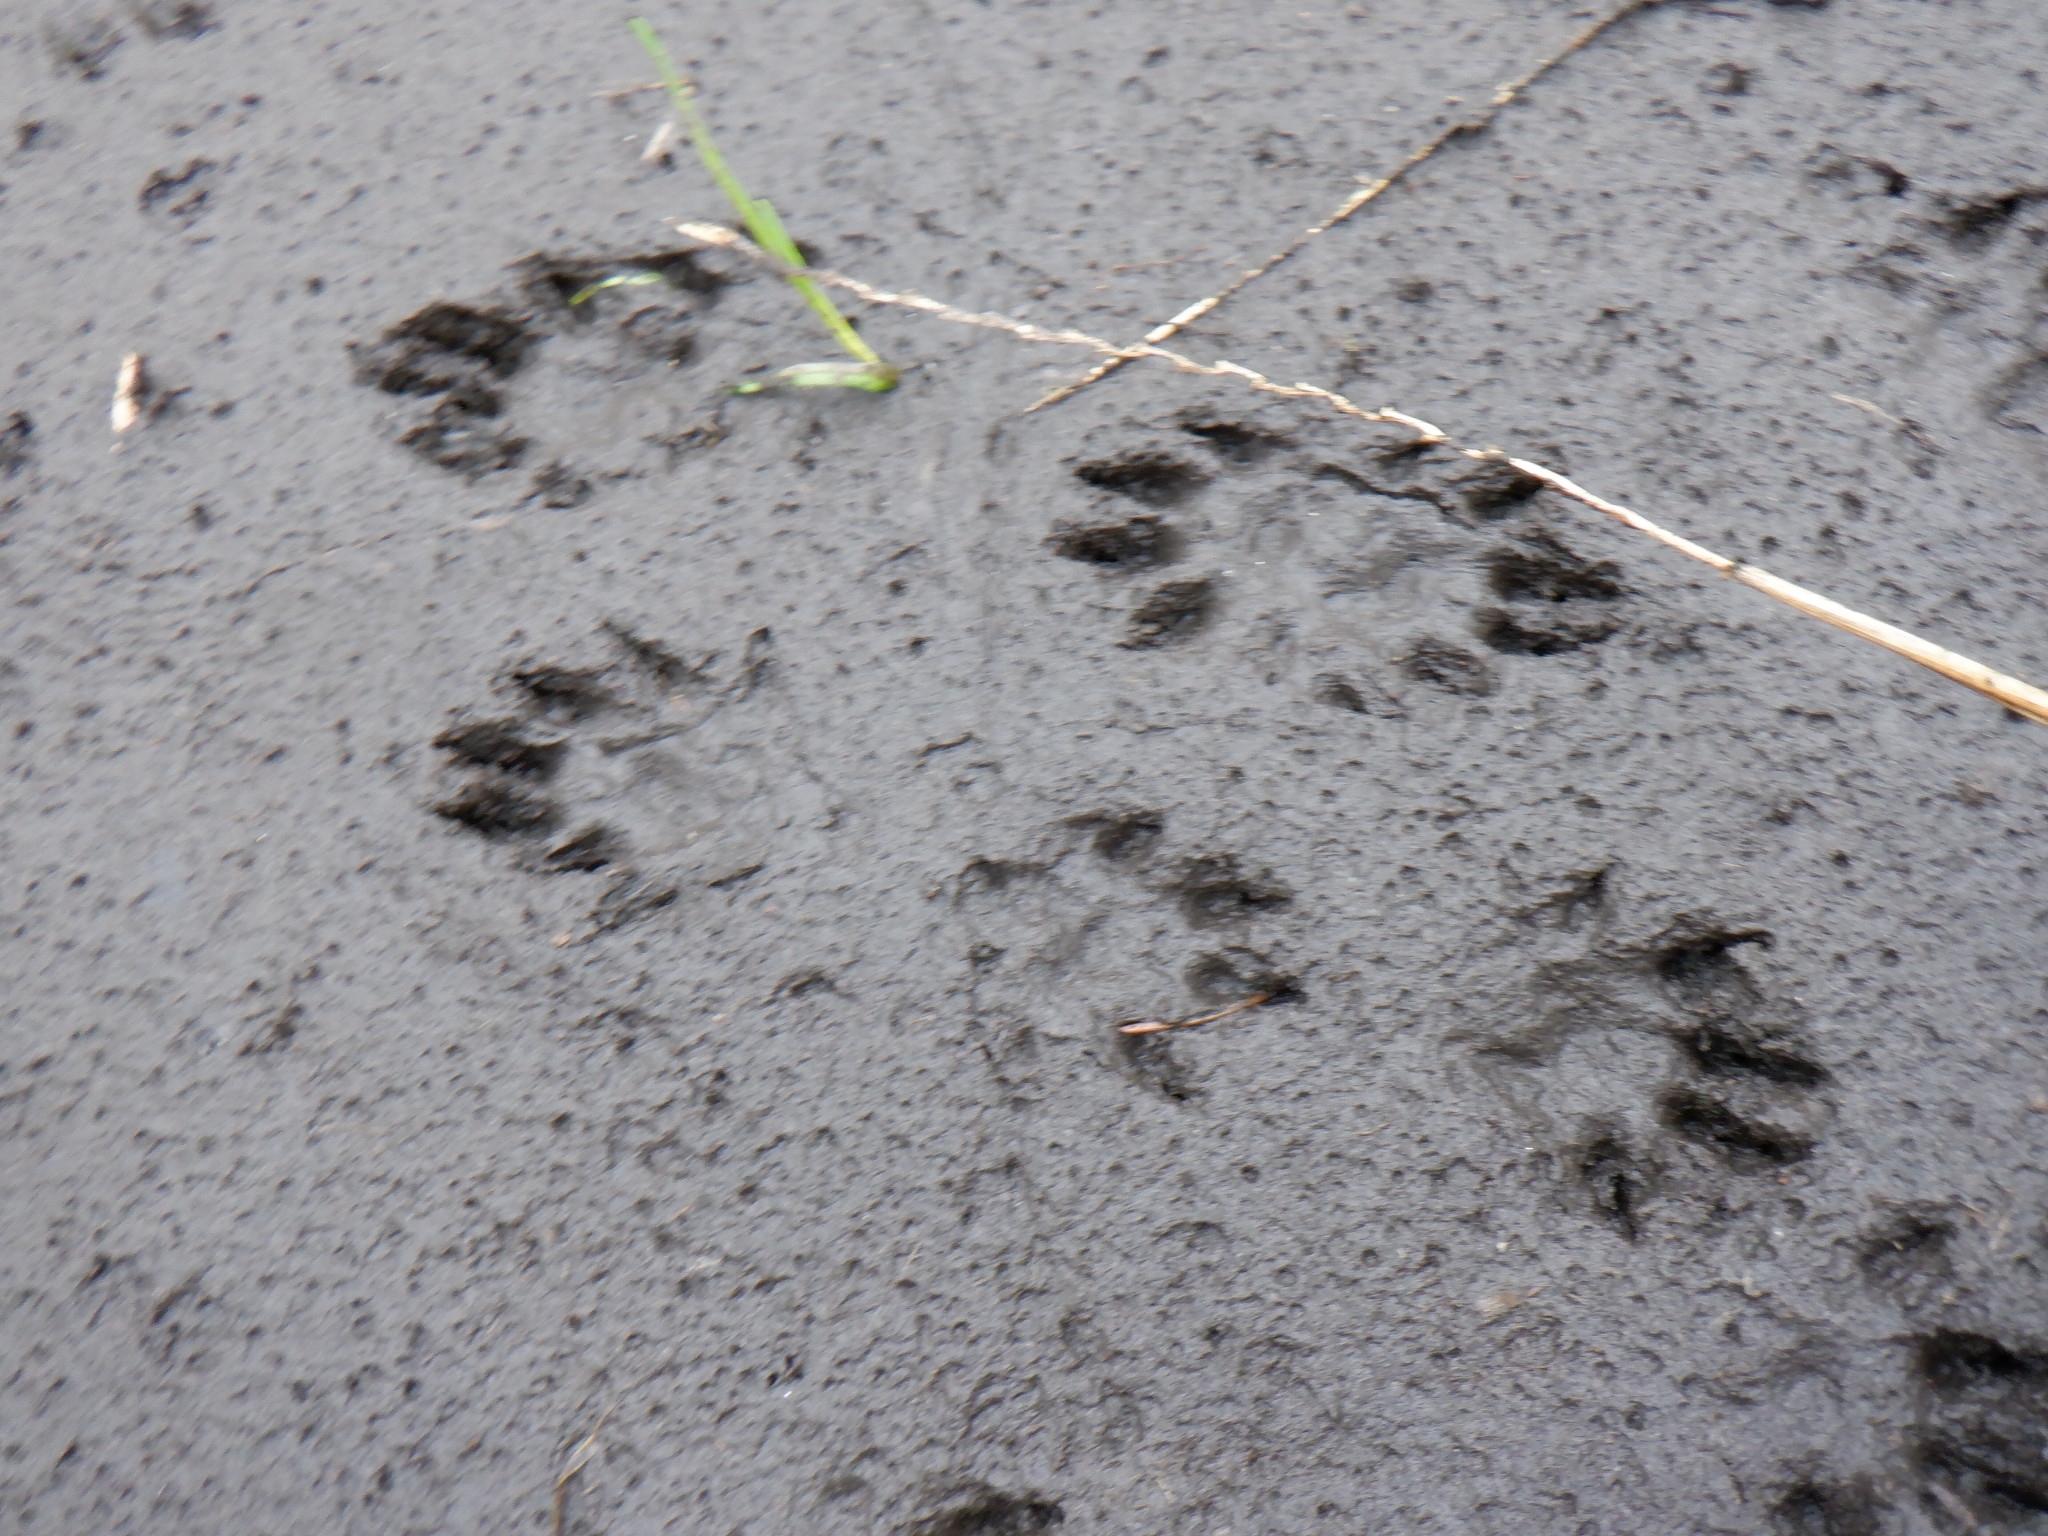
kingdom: Animalia
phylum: Chordata
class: Mammalia
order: Carnivora
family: Mustelidae
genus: Mustela
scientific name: Mustela
